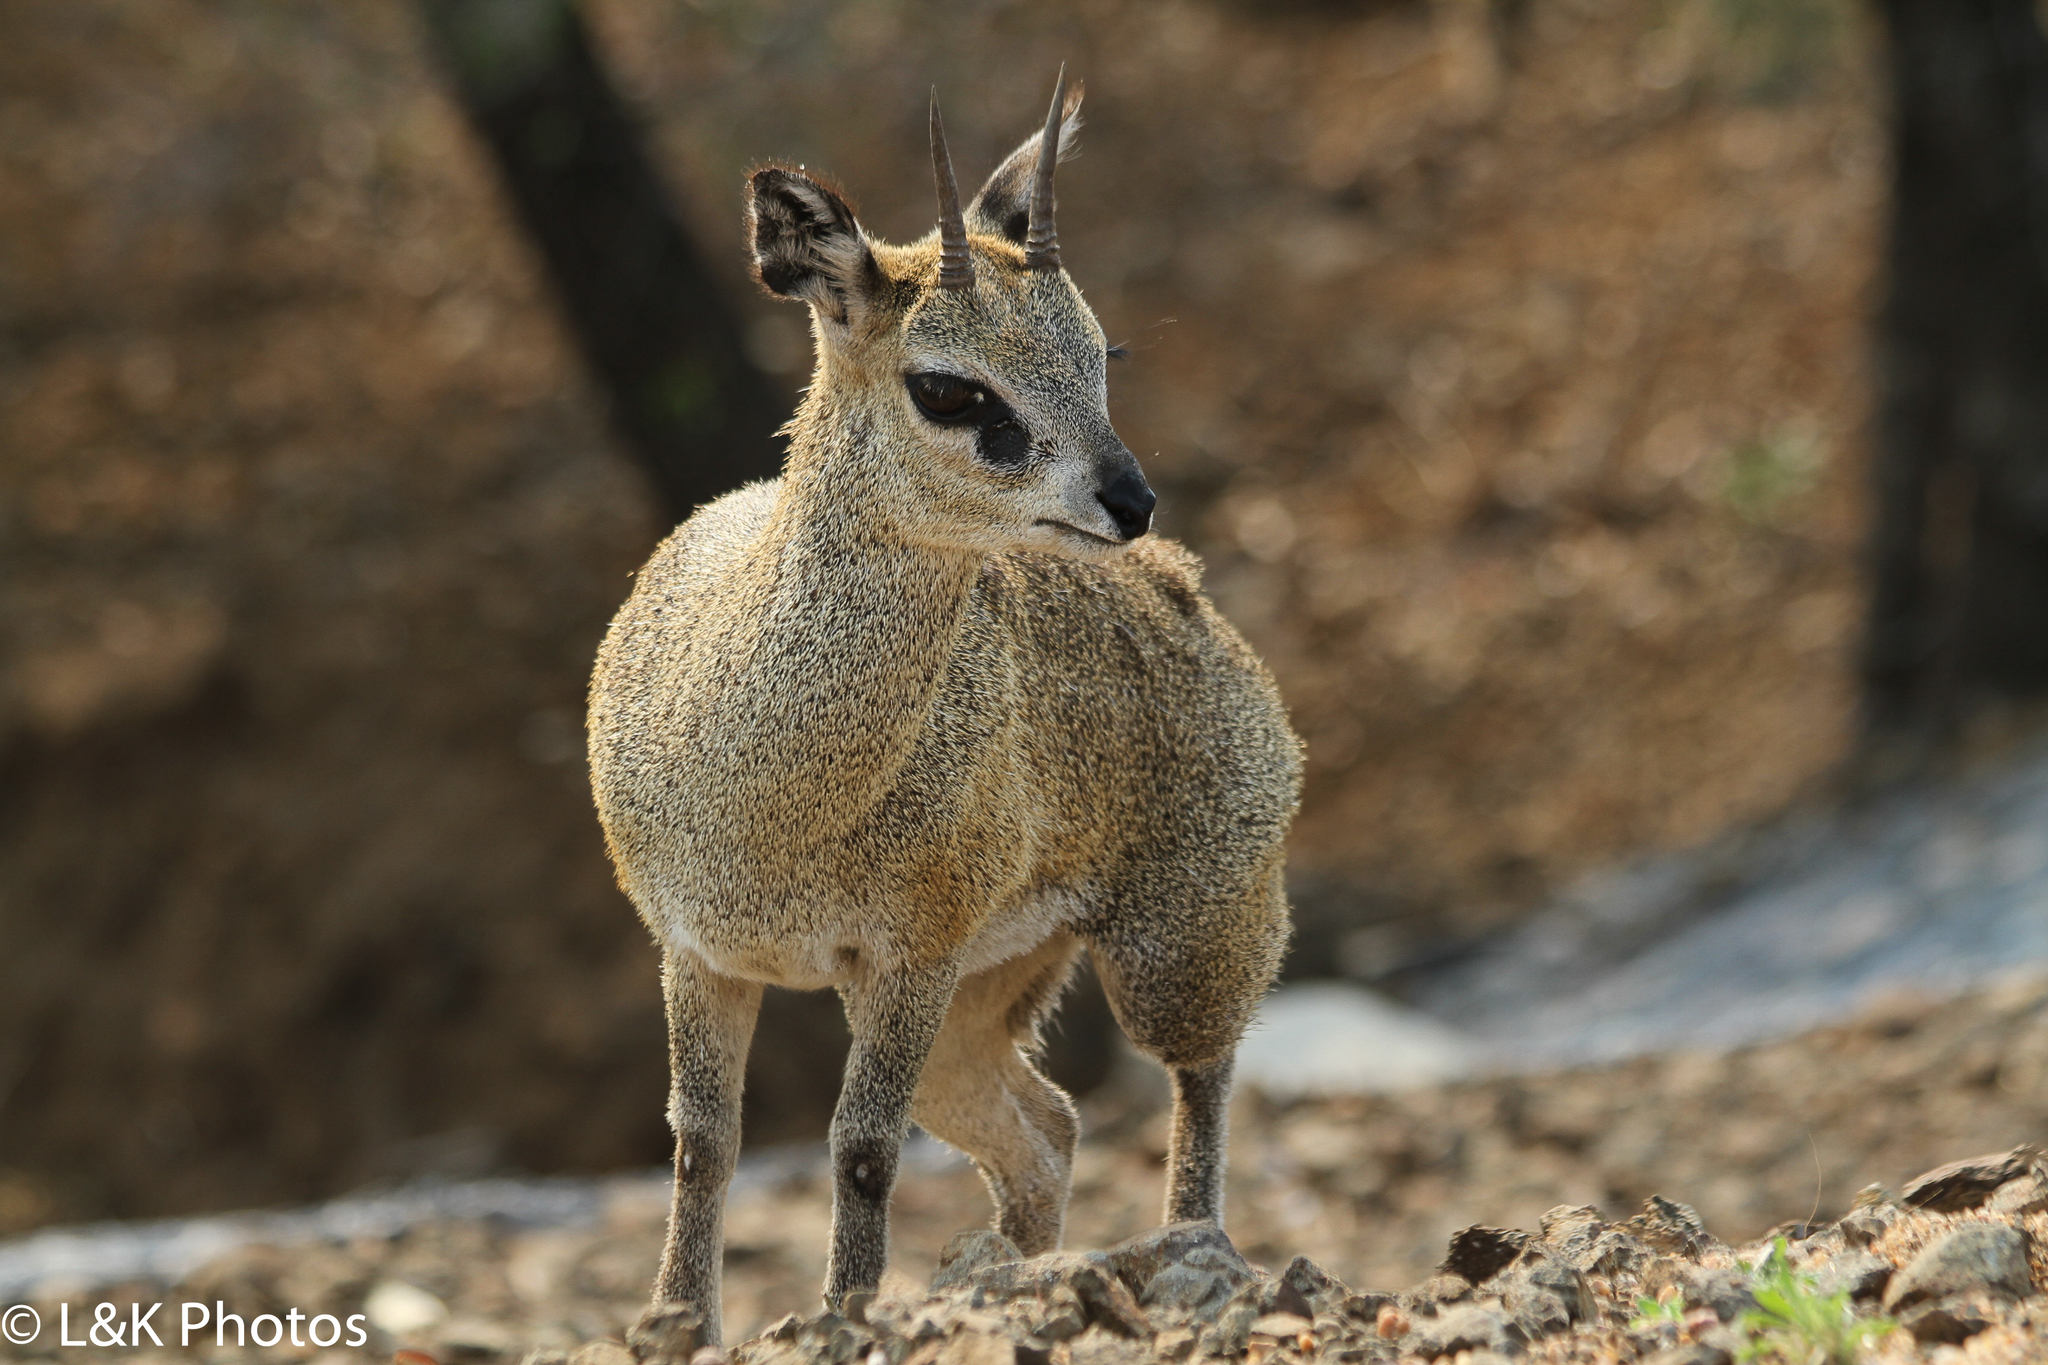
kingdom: Animalia
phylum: Chordata
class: Mammalia
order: Artiodactyla
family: Bovidae
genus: Oreotragus
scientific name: Oreotragus oreotragus
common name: Klipspringer
